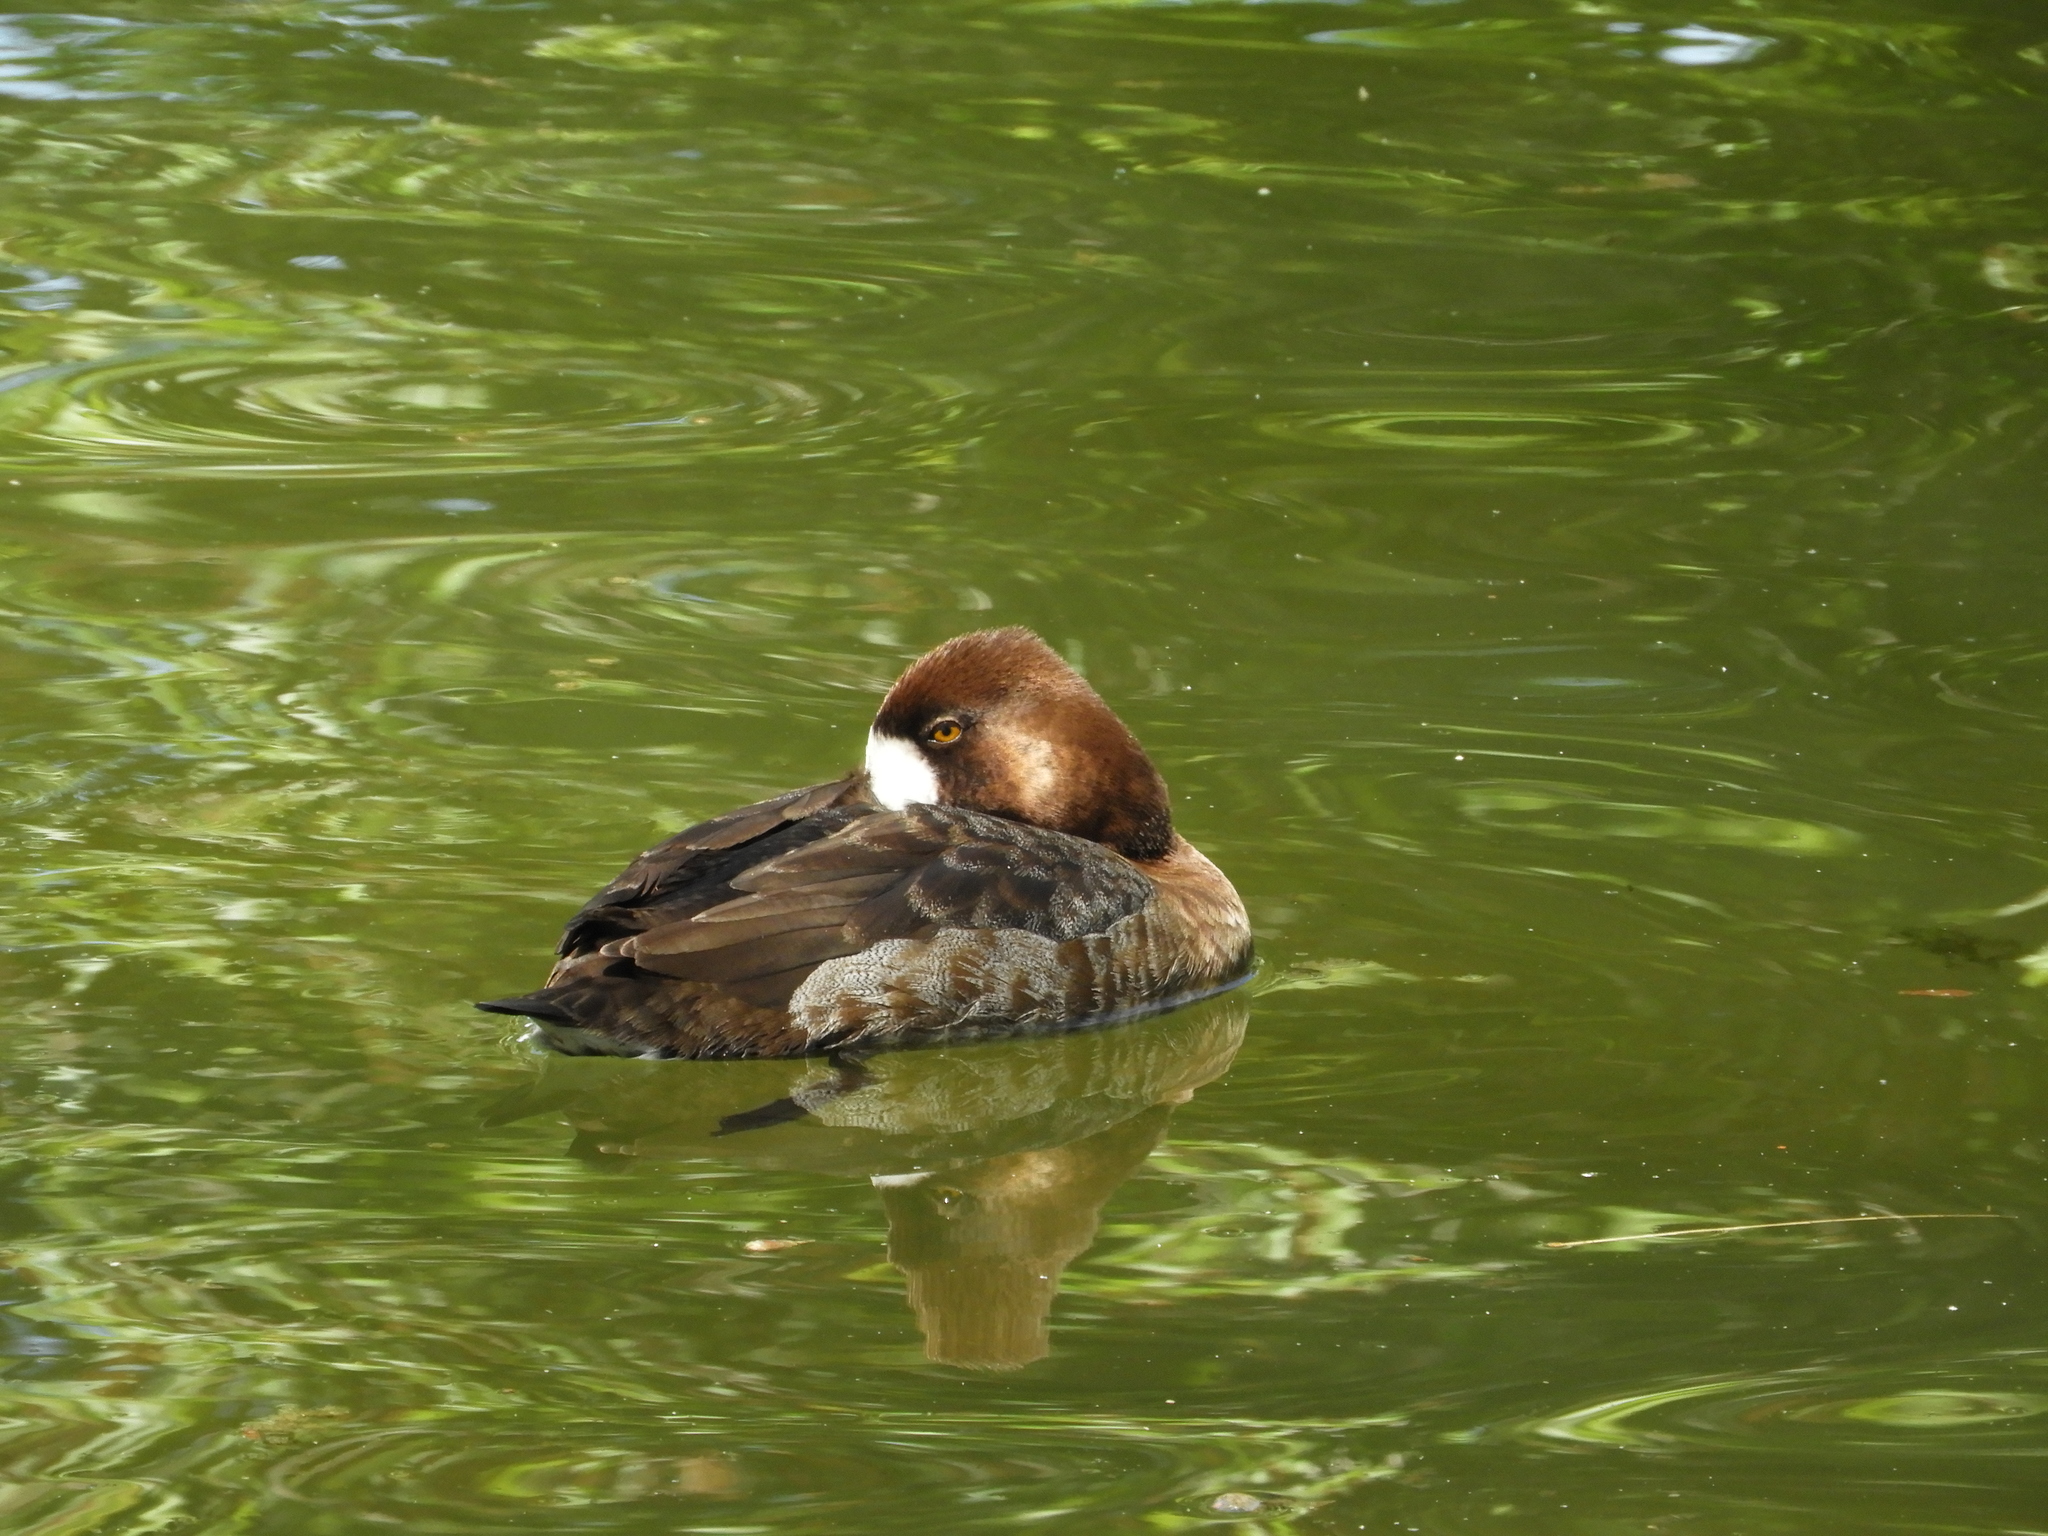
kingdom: Animalia
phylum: Chordata
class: Aves
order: Anseriformes
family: Anatidae
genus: Aythya
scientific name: Aythya affinis
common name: Lesser scaup
